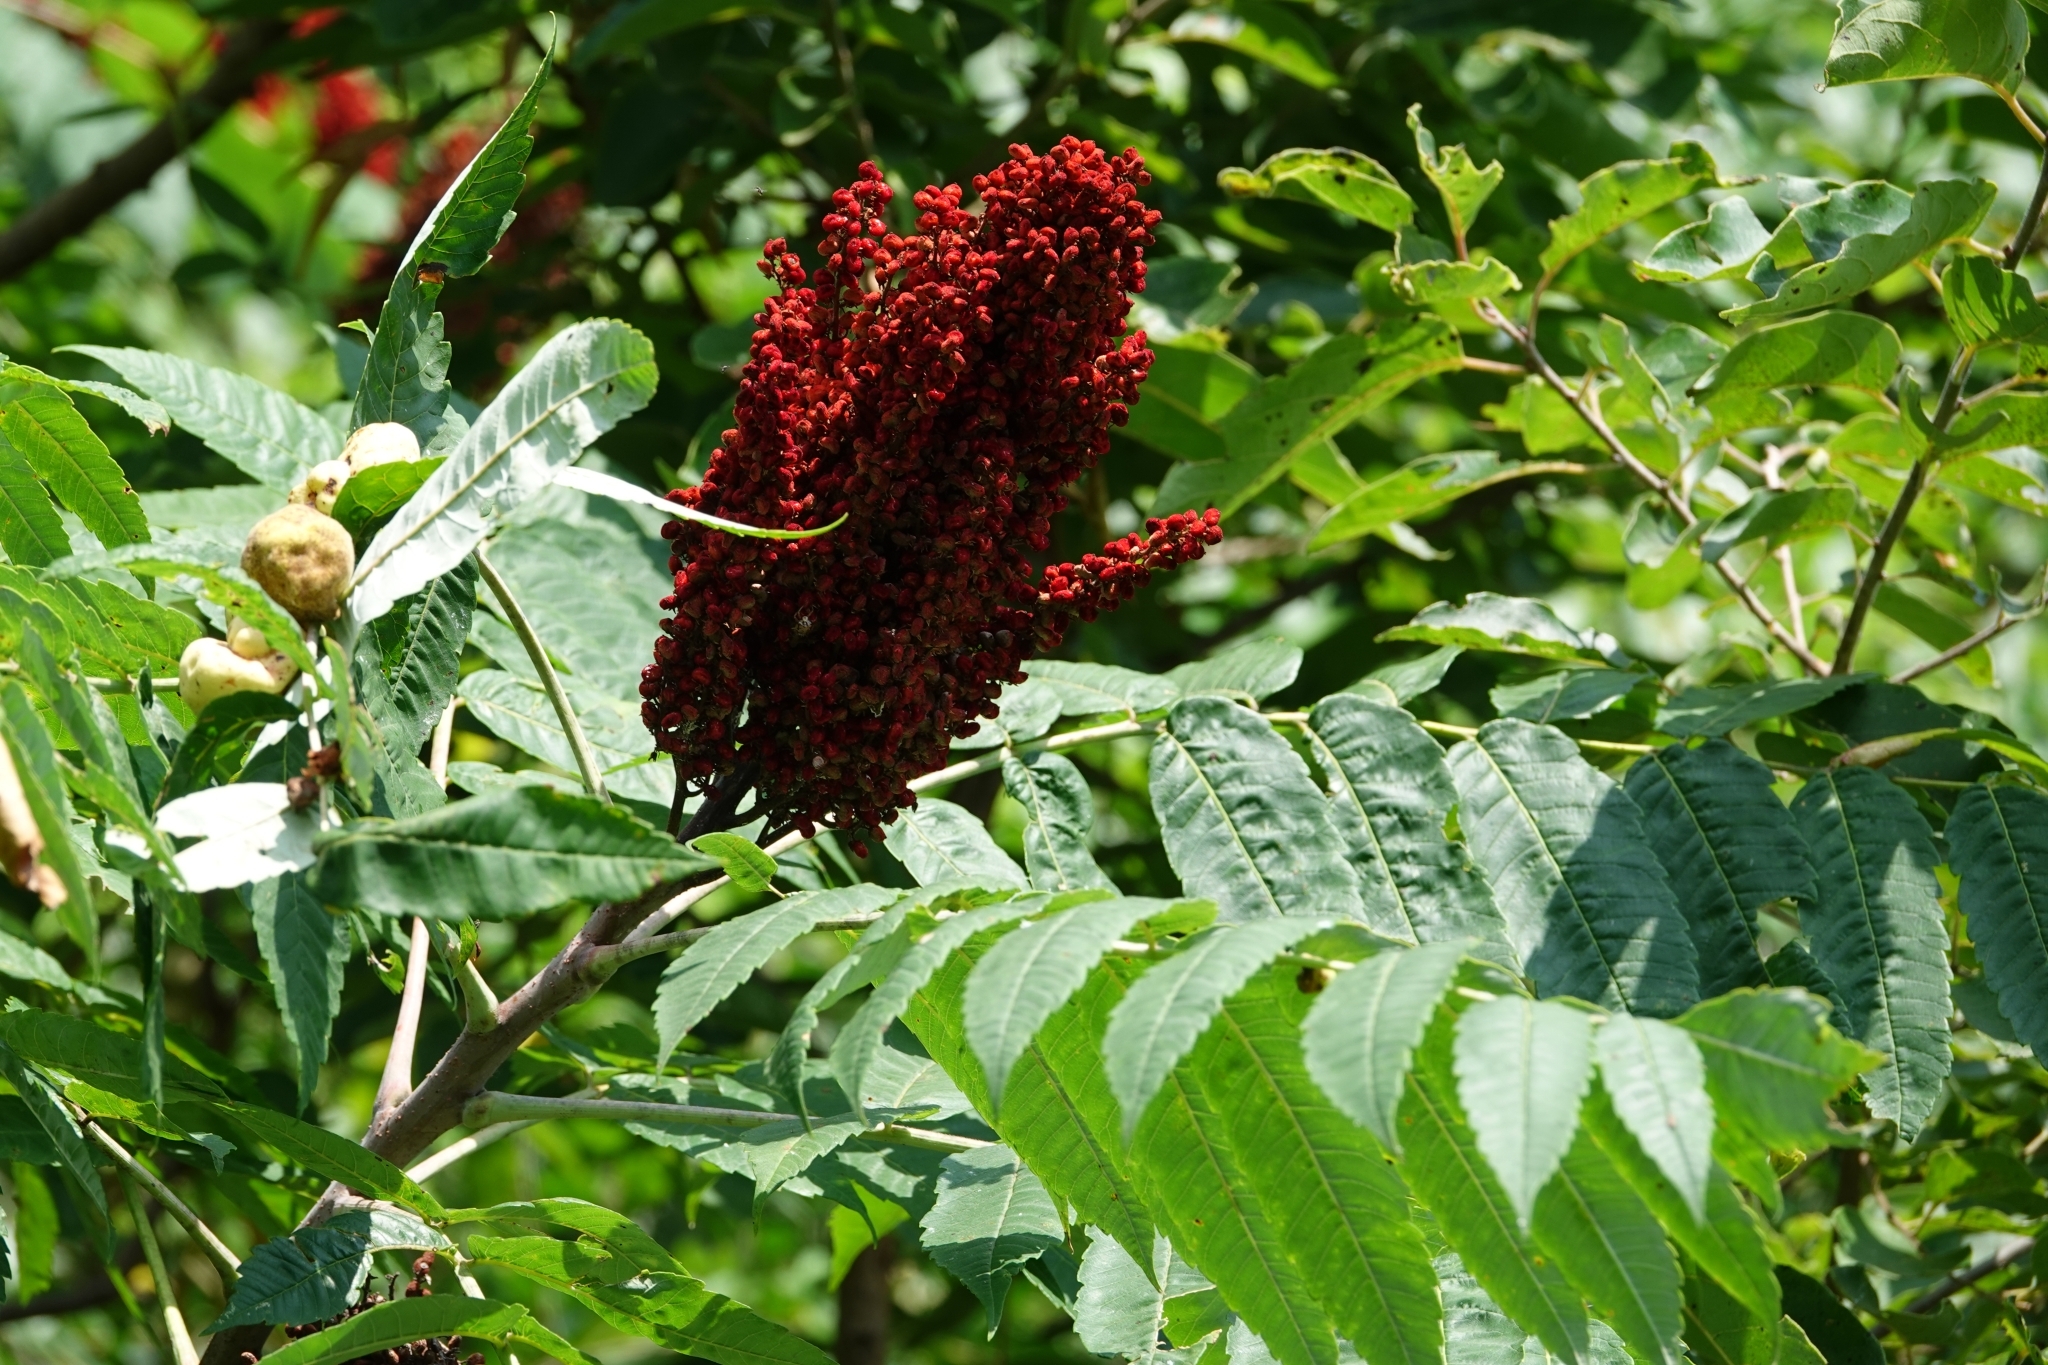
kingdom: Plantae
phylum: Tracheophyta
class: Magnoliopsida
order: Sapindales
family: Anacardiaceae
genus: Rhus
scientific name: Rhus glabra
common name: Scarlet sumac
